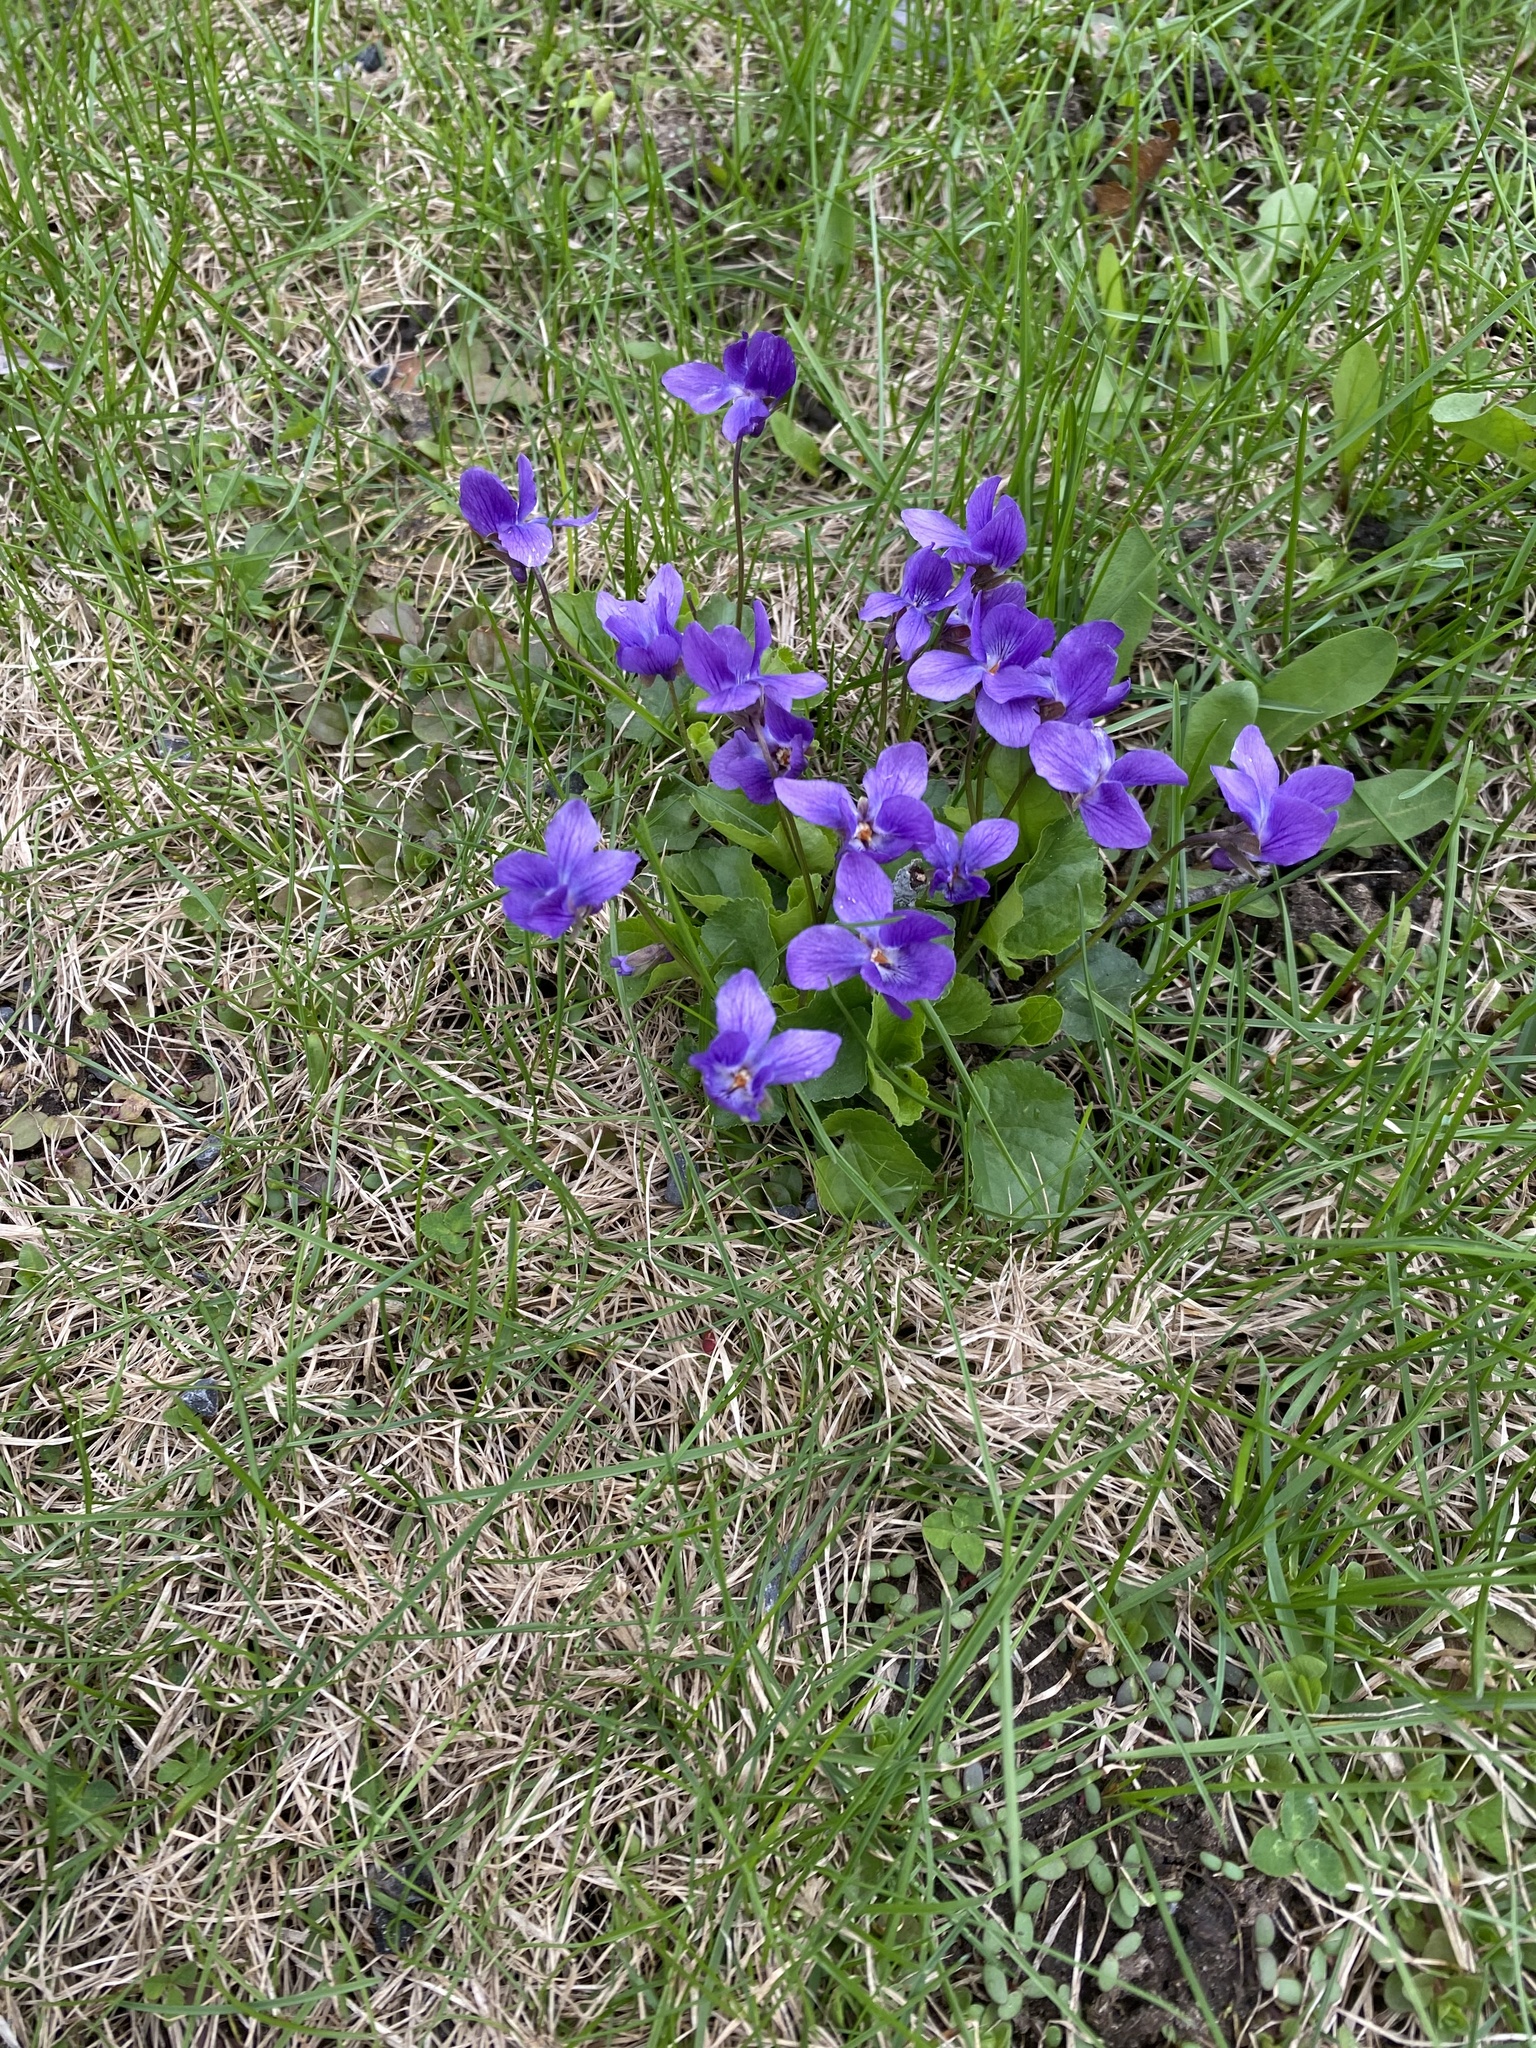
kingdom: Plantae
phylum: Tracheophyta
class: Magnoliopsida
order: Malpighiales
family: Violaceae
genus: Viola
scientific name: Viola odorata
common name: Sweet violet
